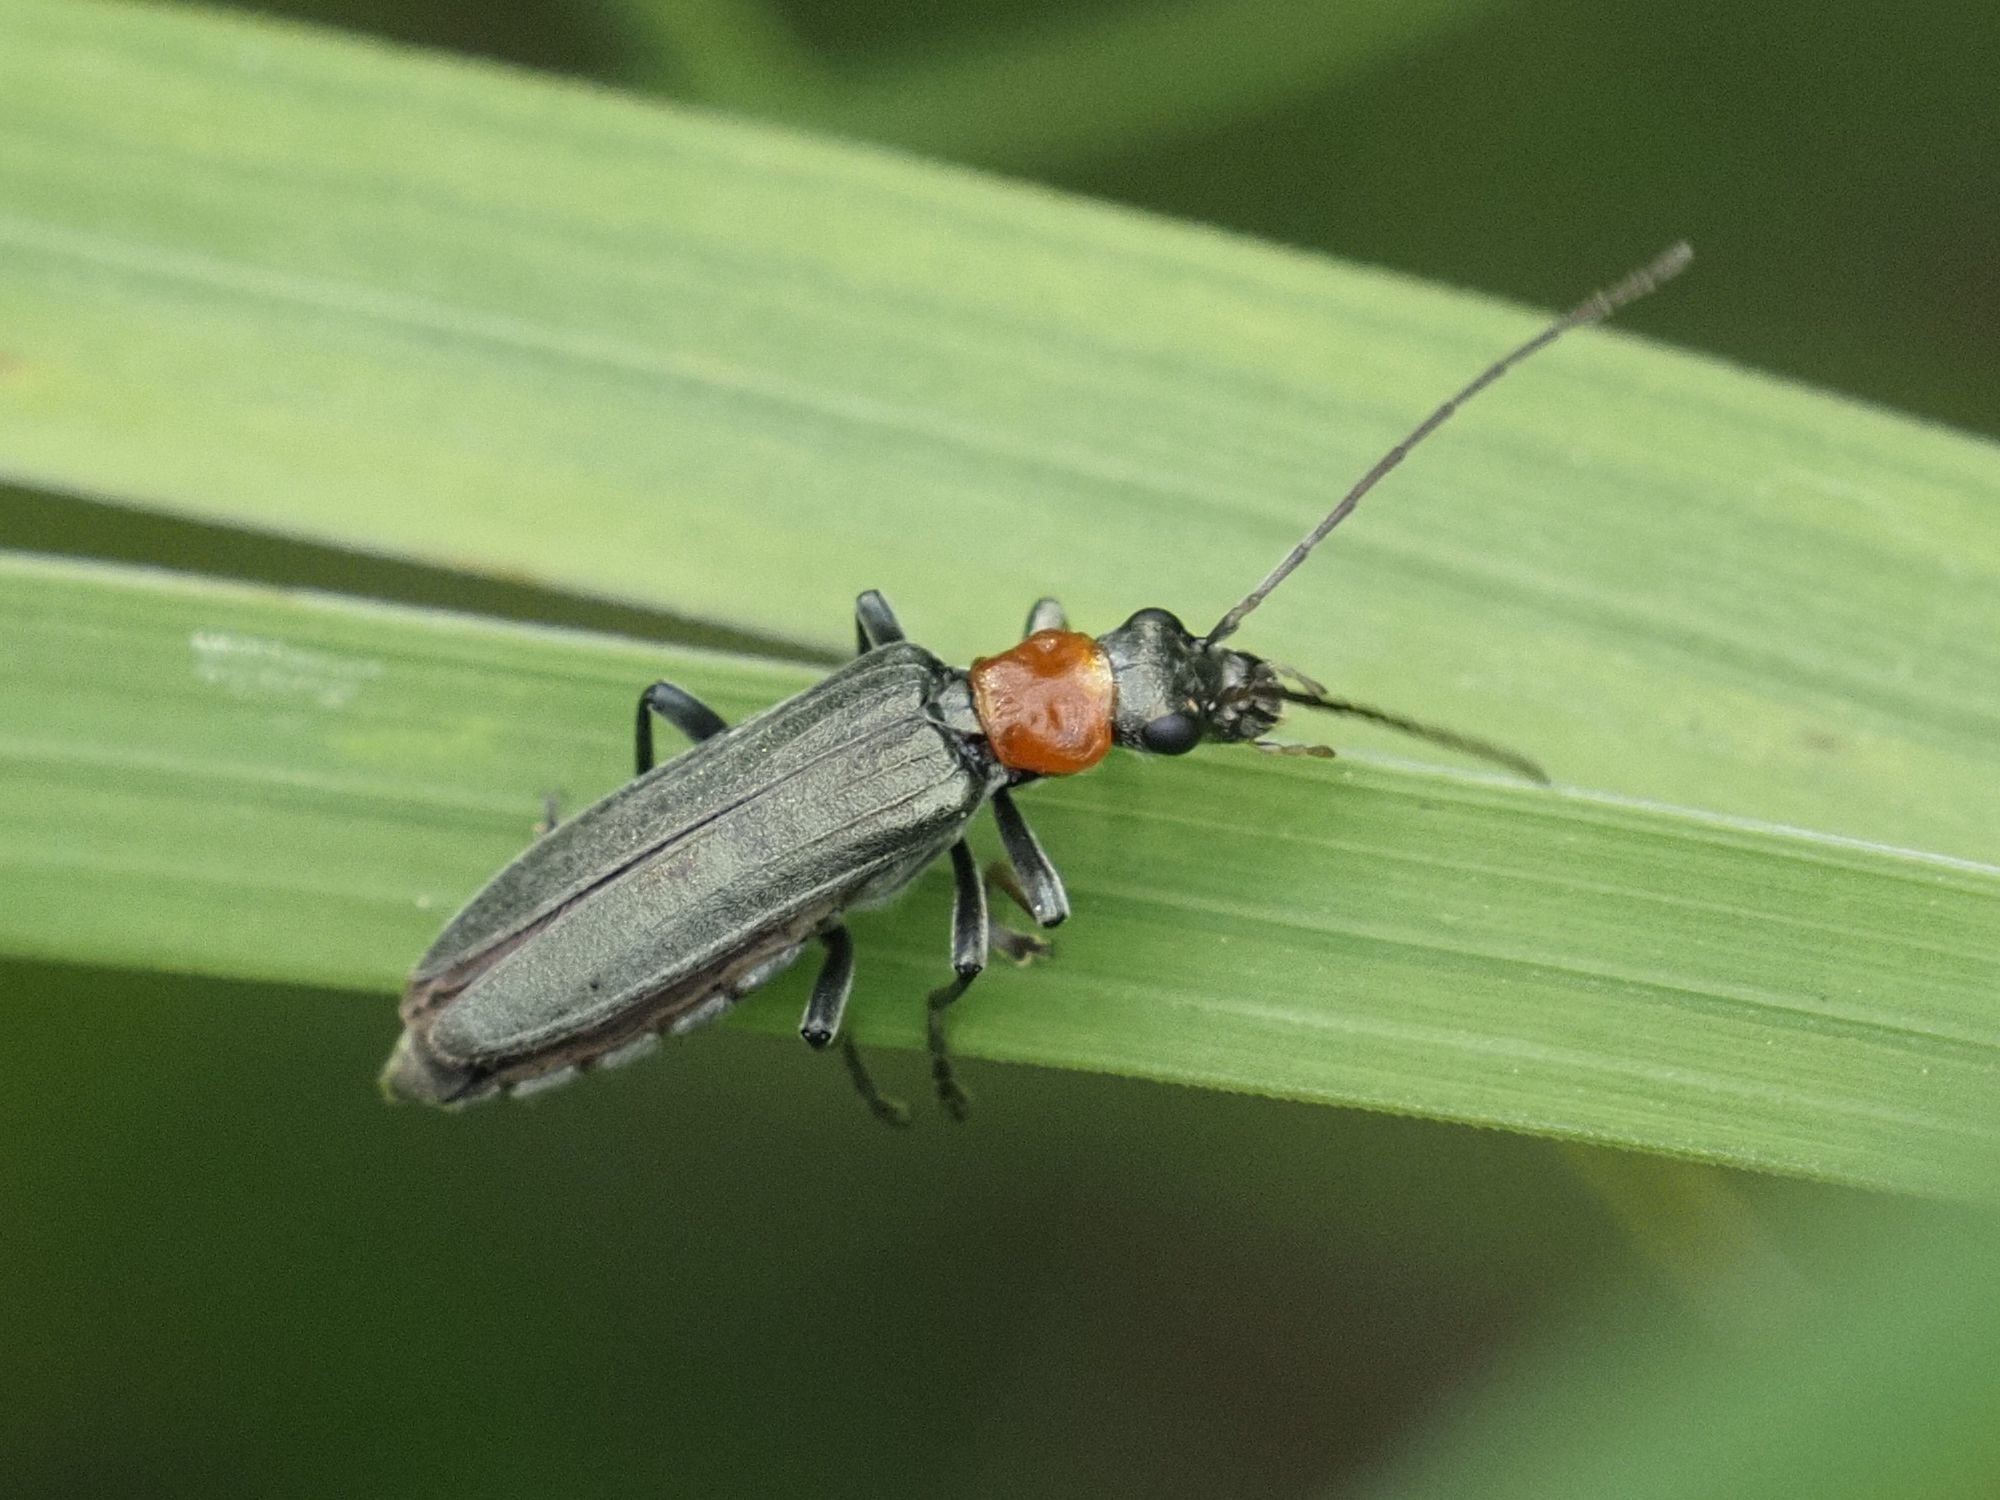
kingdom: Animalia
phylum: Arthropoda
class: Insecta
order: Coleoptera
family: Oedemeridae
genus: Oedemera
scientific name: Oedemera croceicollis
